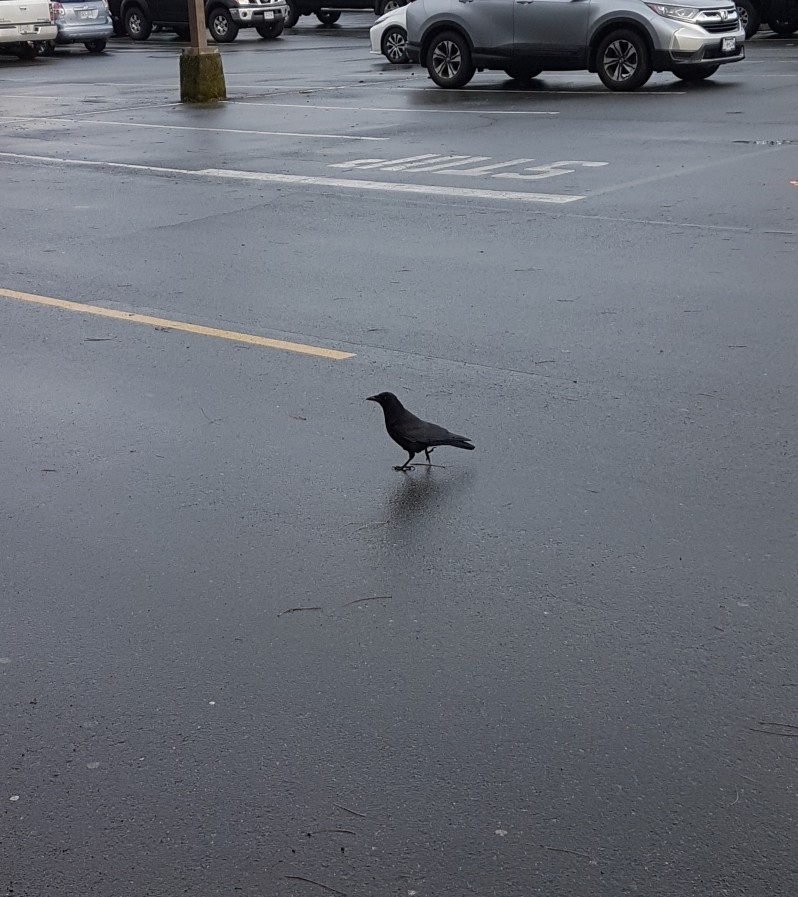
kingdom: Animalia
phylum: Chordata
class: Aves
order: Passeriformes
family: Corvidae
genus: Corvus
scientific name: Corvus brachyrhynchos
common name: American crow
